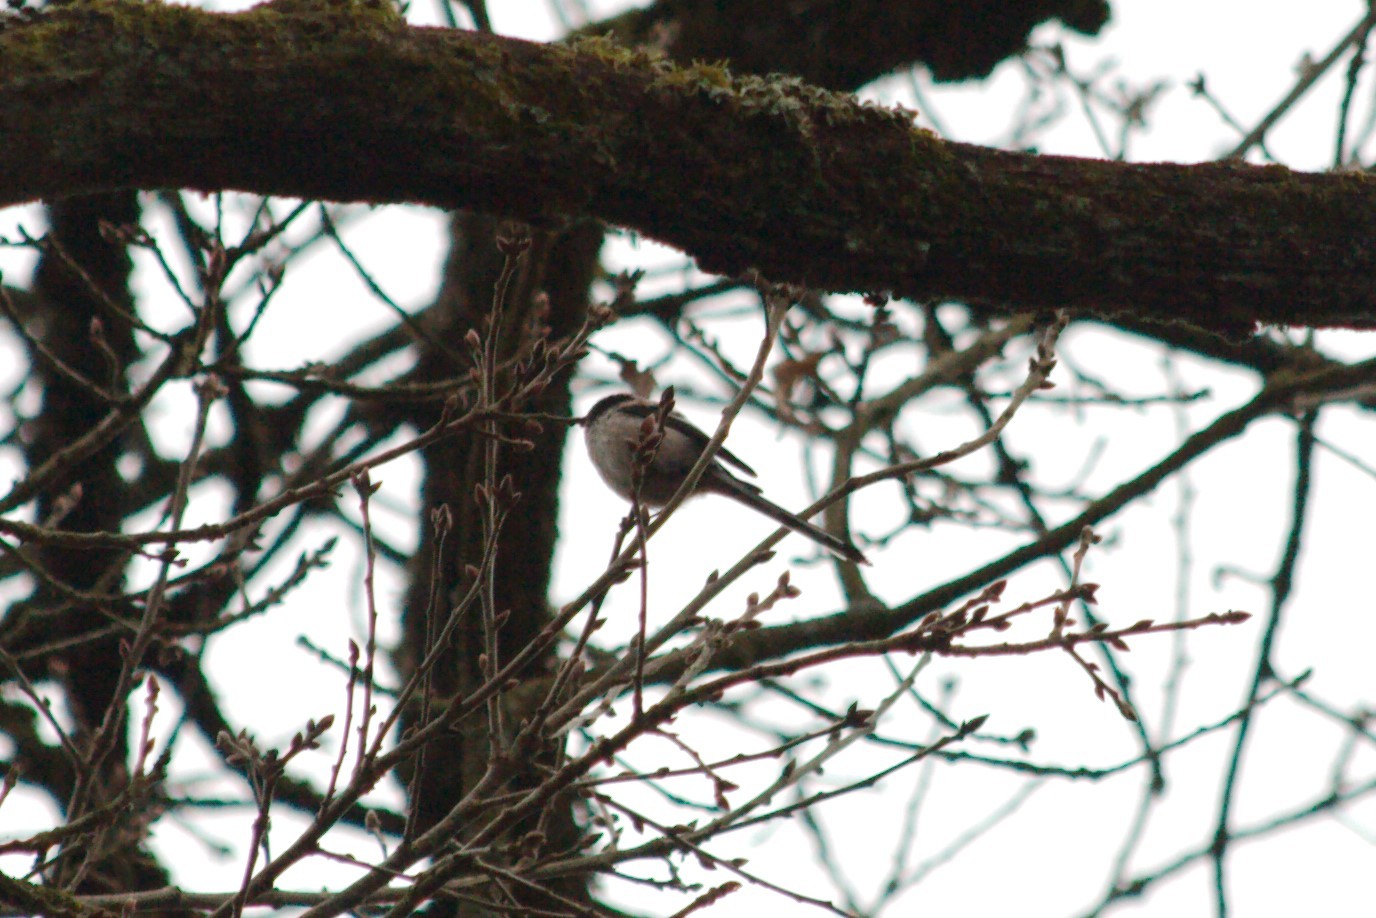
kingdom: Animalia
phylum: Chordata
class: Aves
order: Passeriformes
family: Aegithalidae
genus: Aegithalos
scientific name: Aegithalos caudatus
